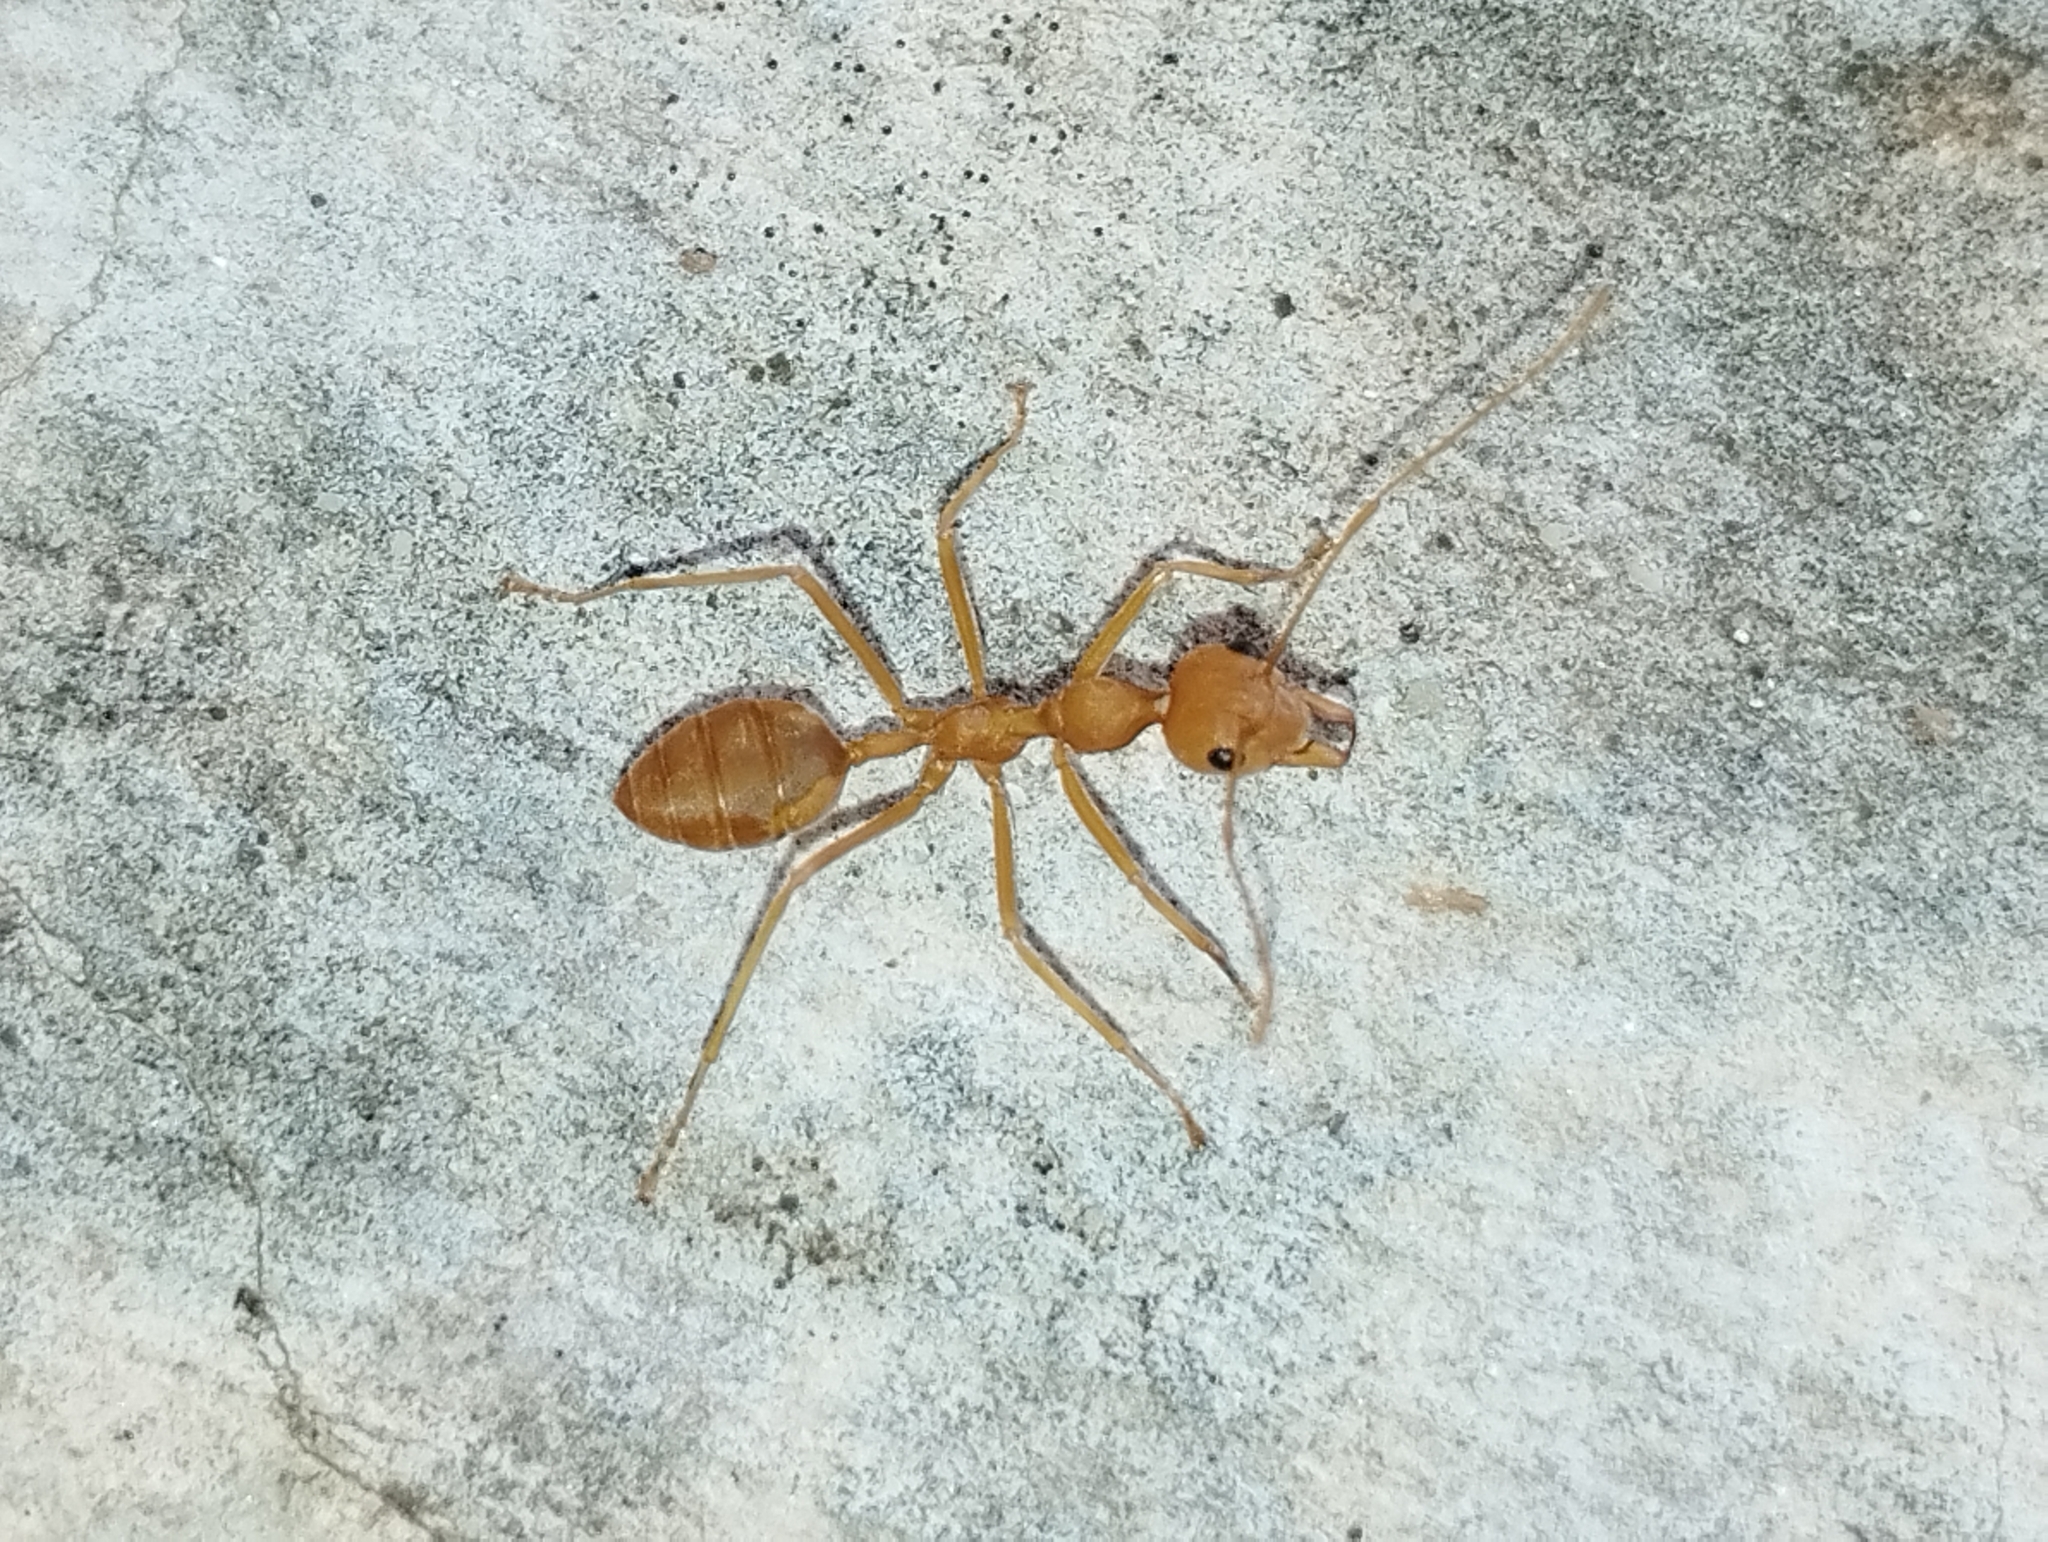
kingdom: Animalia
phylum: Arthropoda
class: Insecta
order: Hymenoptera
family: Formicidae
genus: Oecophylla
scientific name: Oecophylla smaragdina
